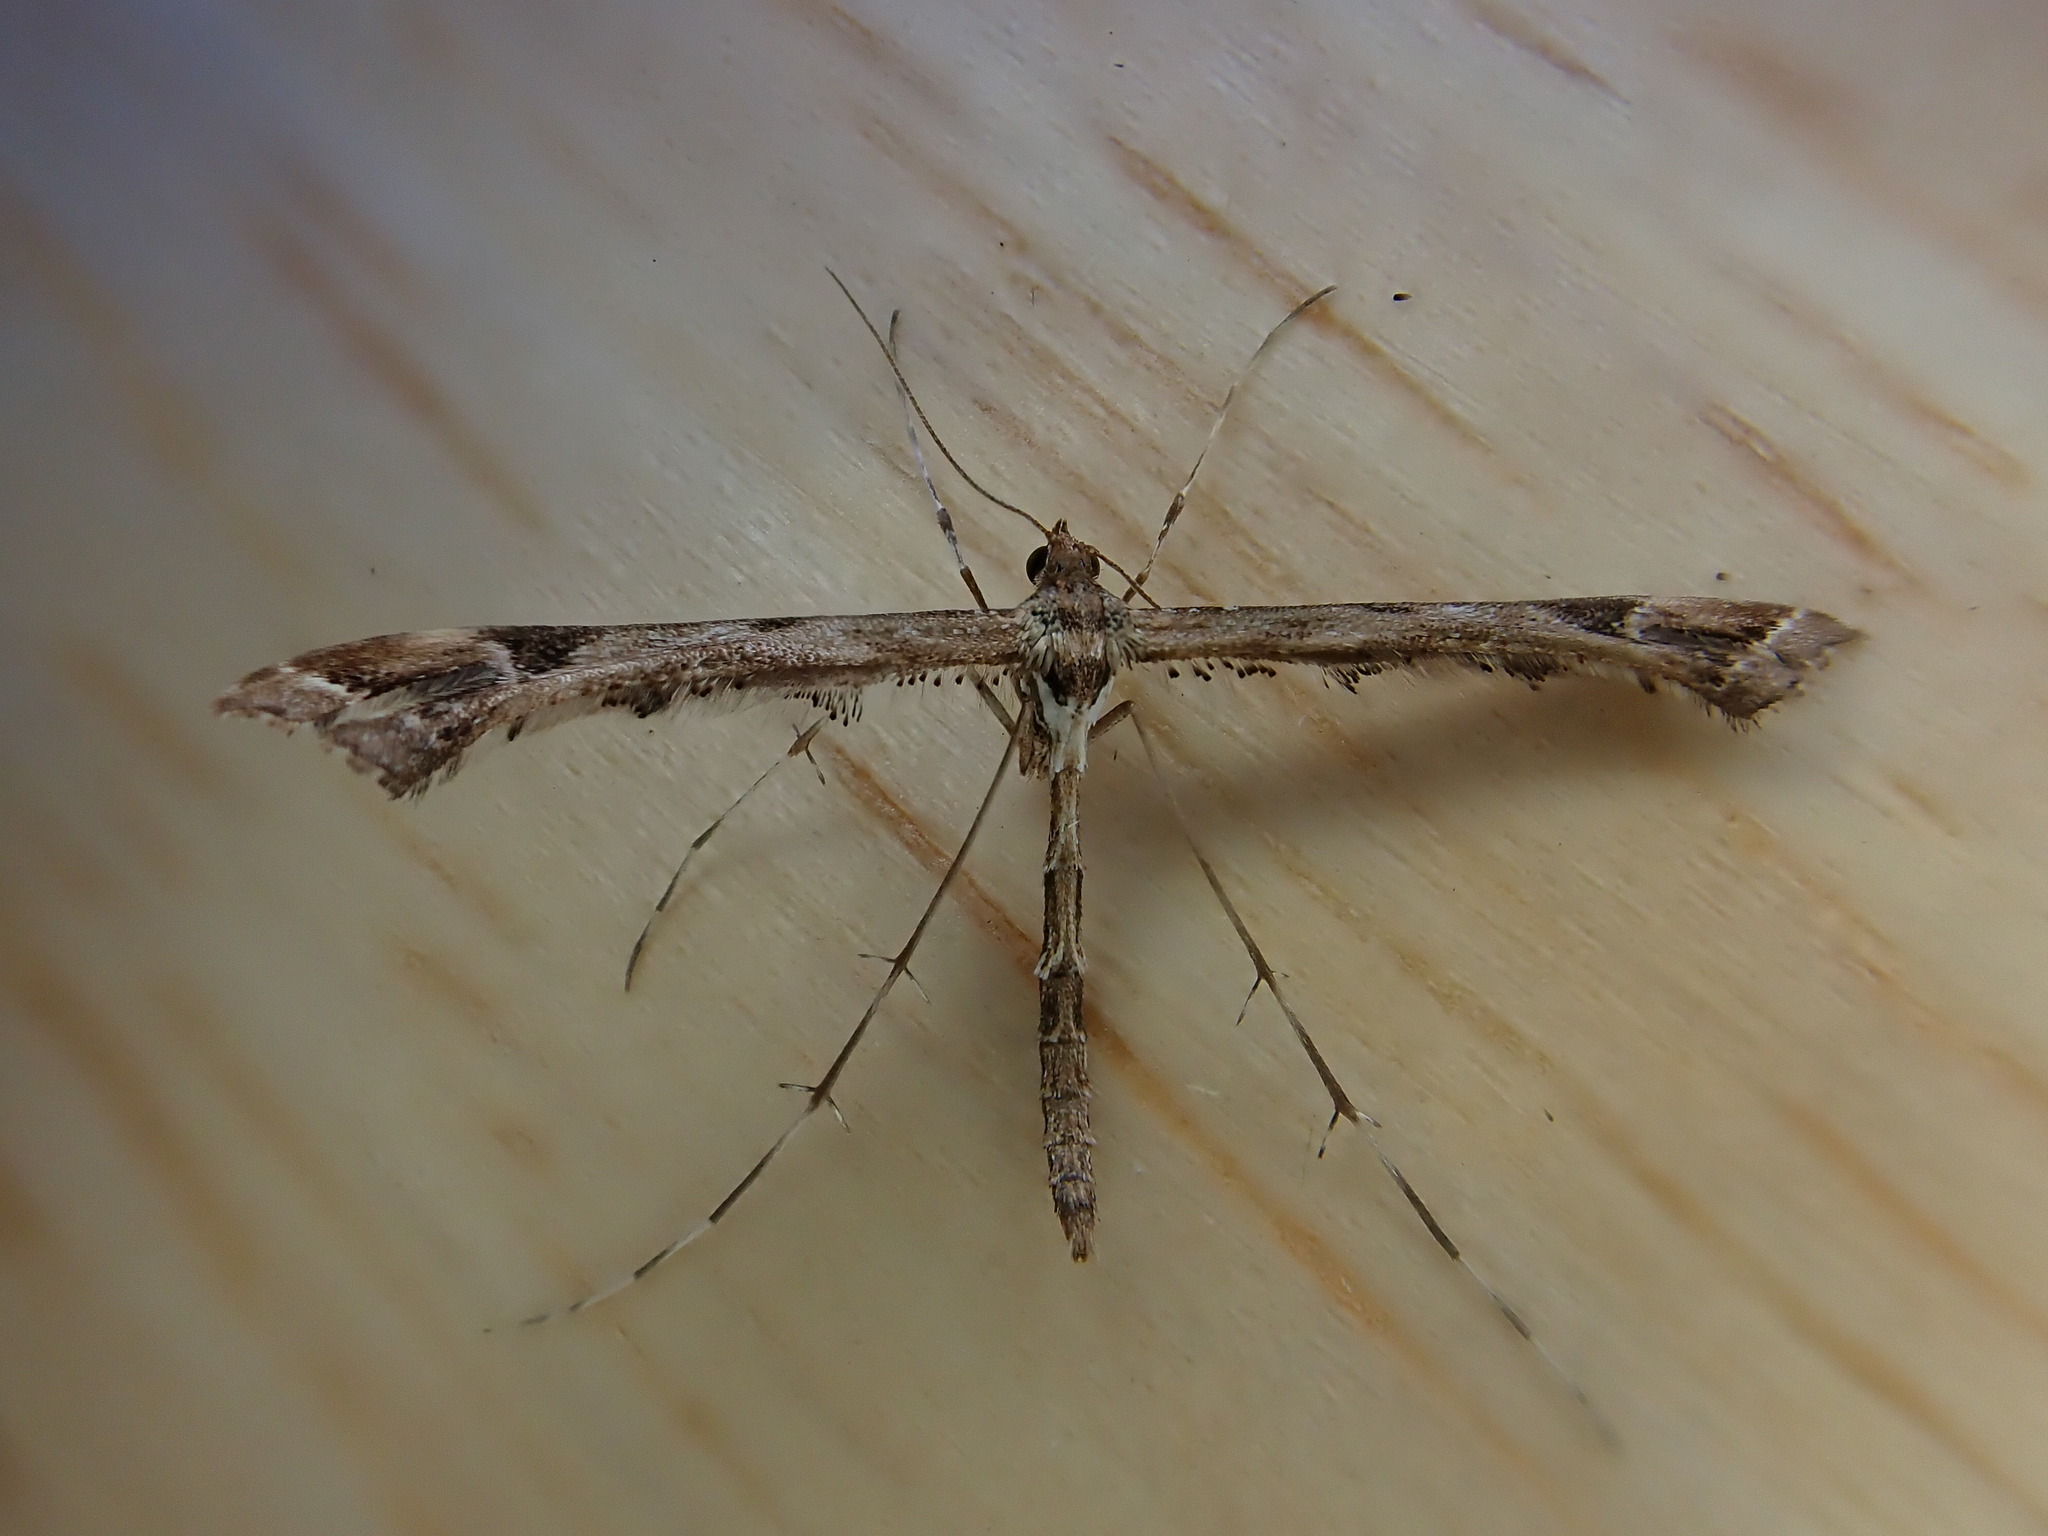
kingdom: Animalia
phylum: Arthropoda
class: Insecta
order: Lepidoptera
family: Pterophoridae
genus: Amblyptilia
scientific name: Amblyptilia acanthadactyla
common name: Beautiful plume
